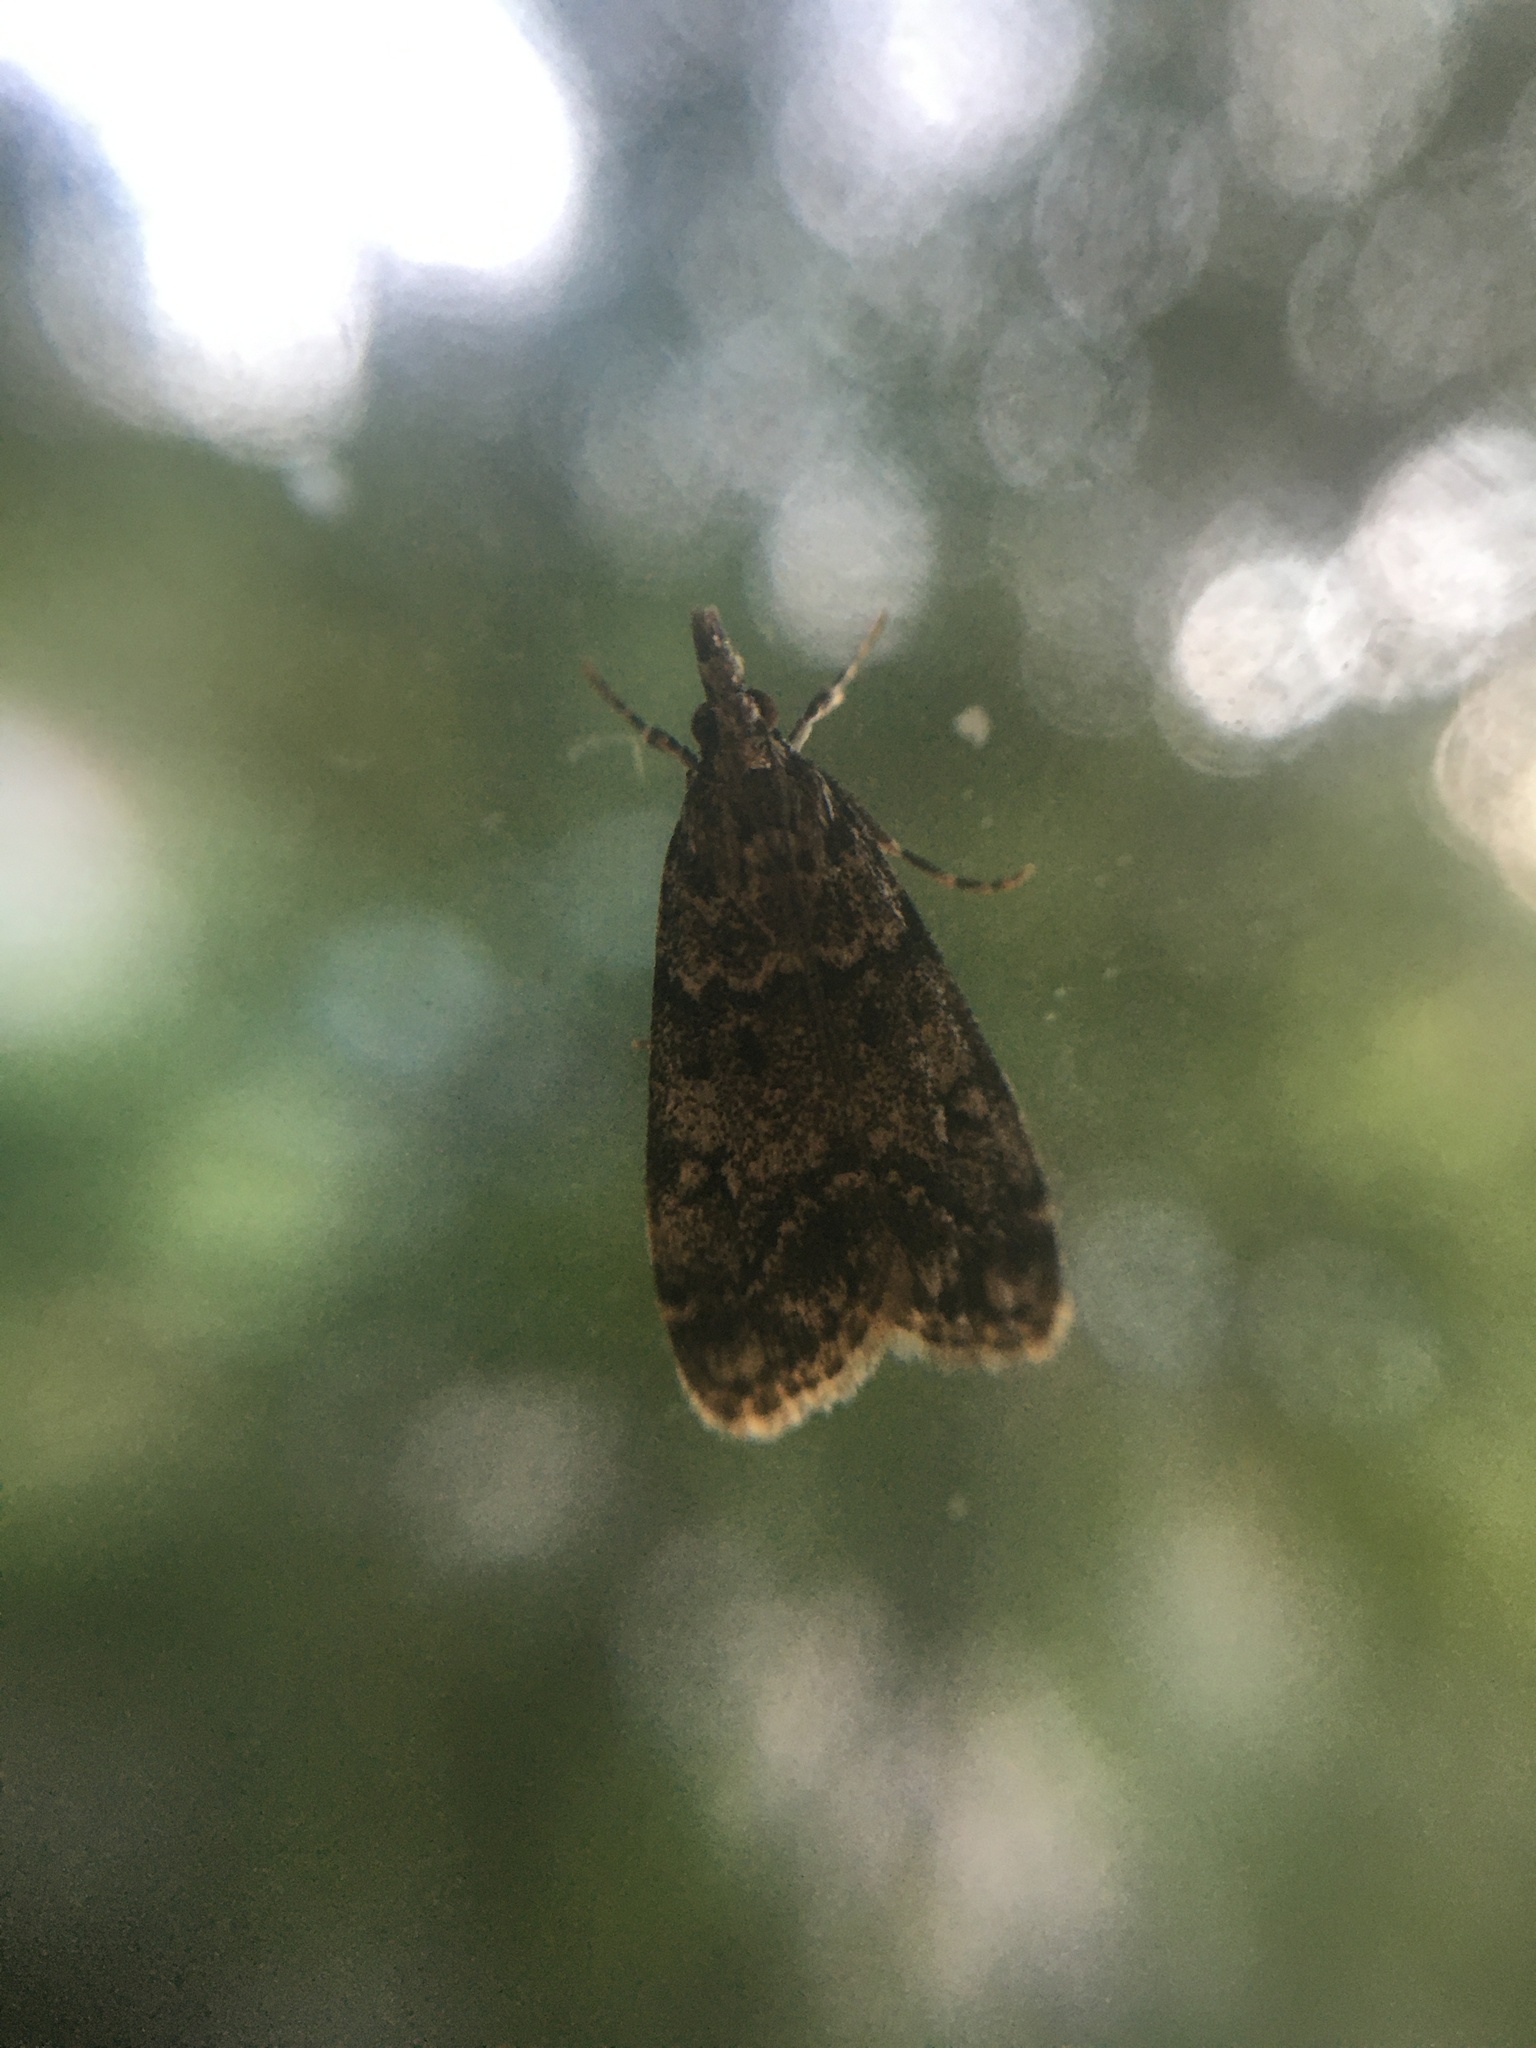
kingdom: Animalia
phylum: Arthropoda
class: Insecta
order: Lepidoptera
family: Crambidae
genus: Eudonia
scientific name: Eudonia lacustrata
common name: Little grey
